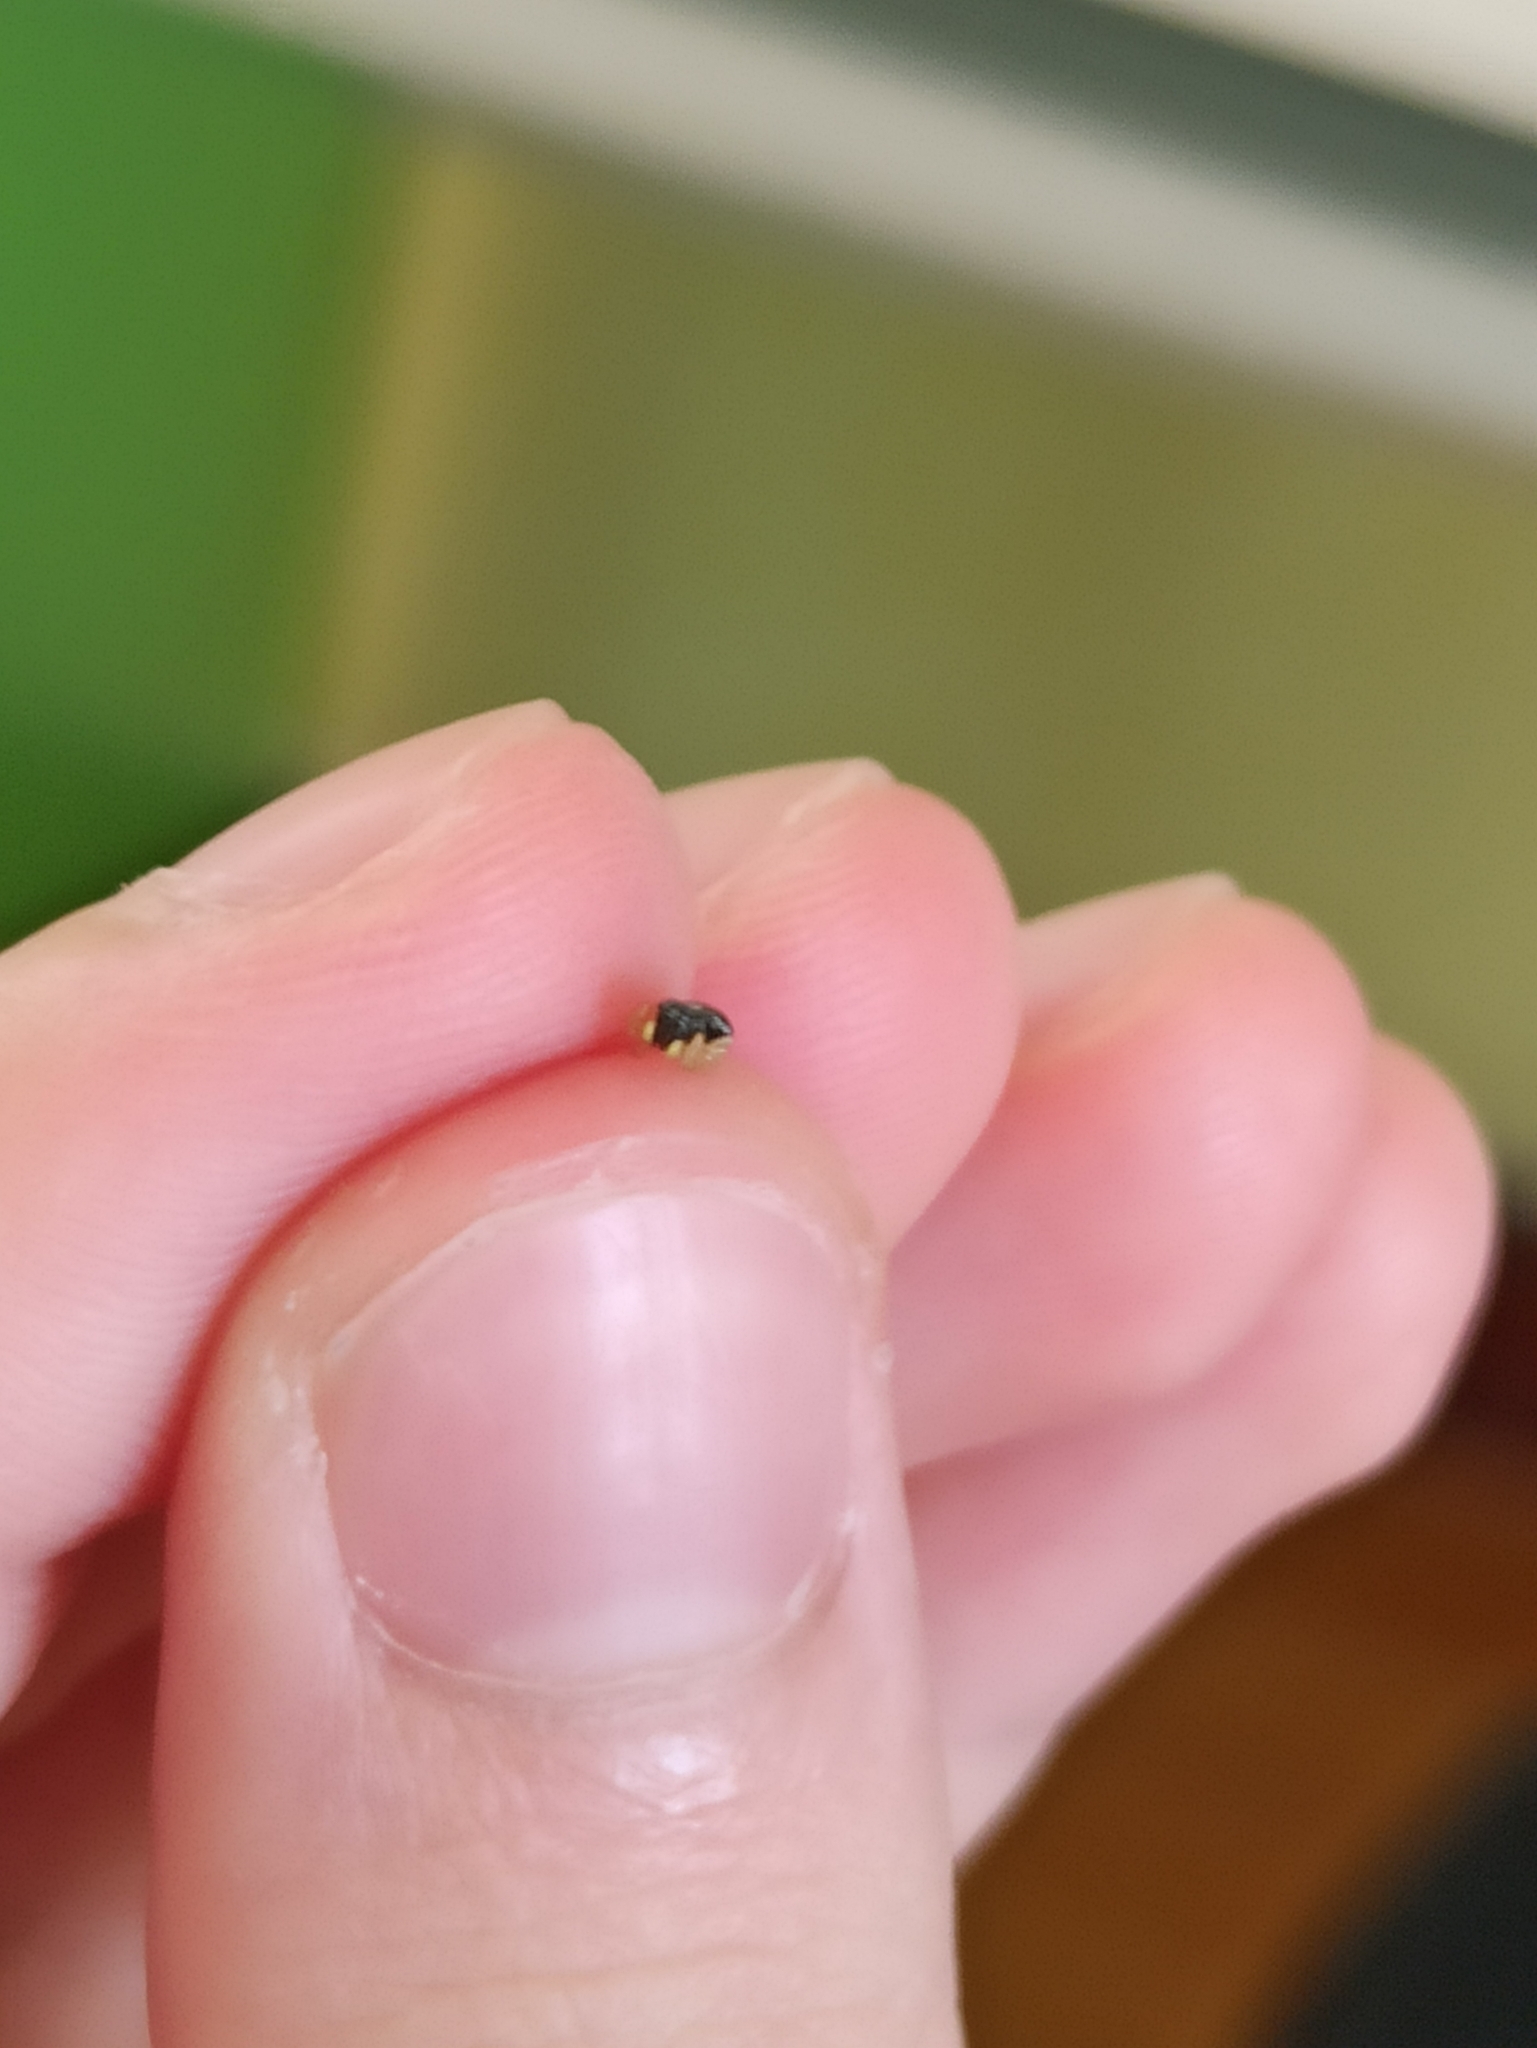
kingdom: Animalia
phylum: Arthropoda
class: Arachnida
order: Araneae
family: Salticidae
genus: Heliophanus
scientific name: Heliophanus cupreus
